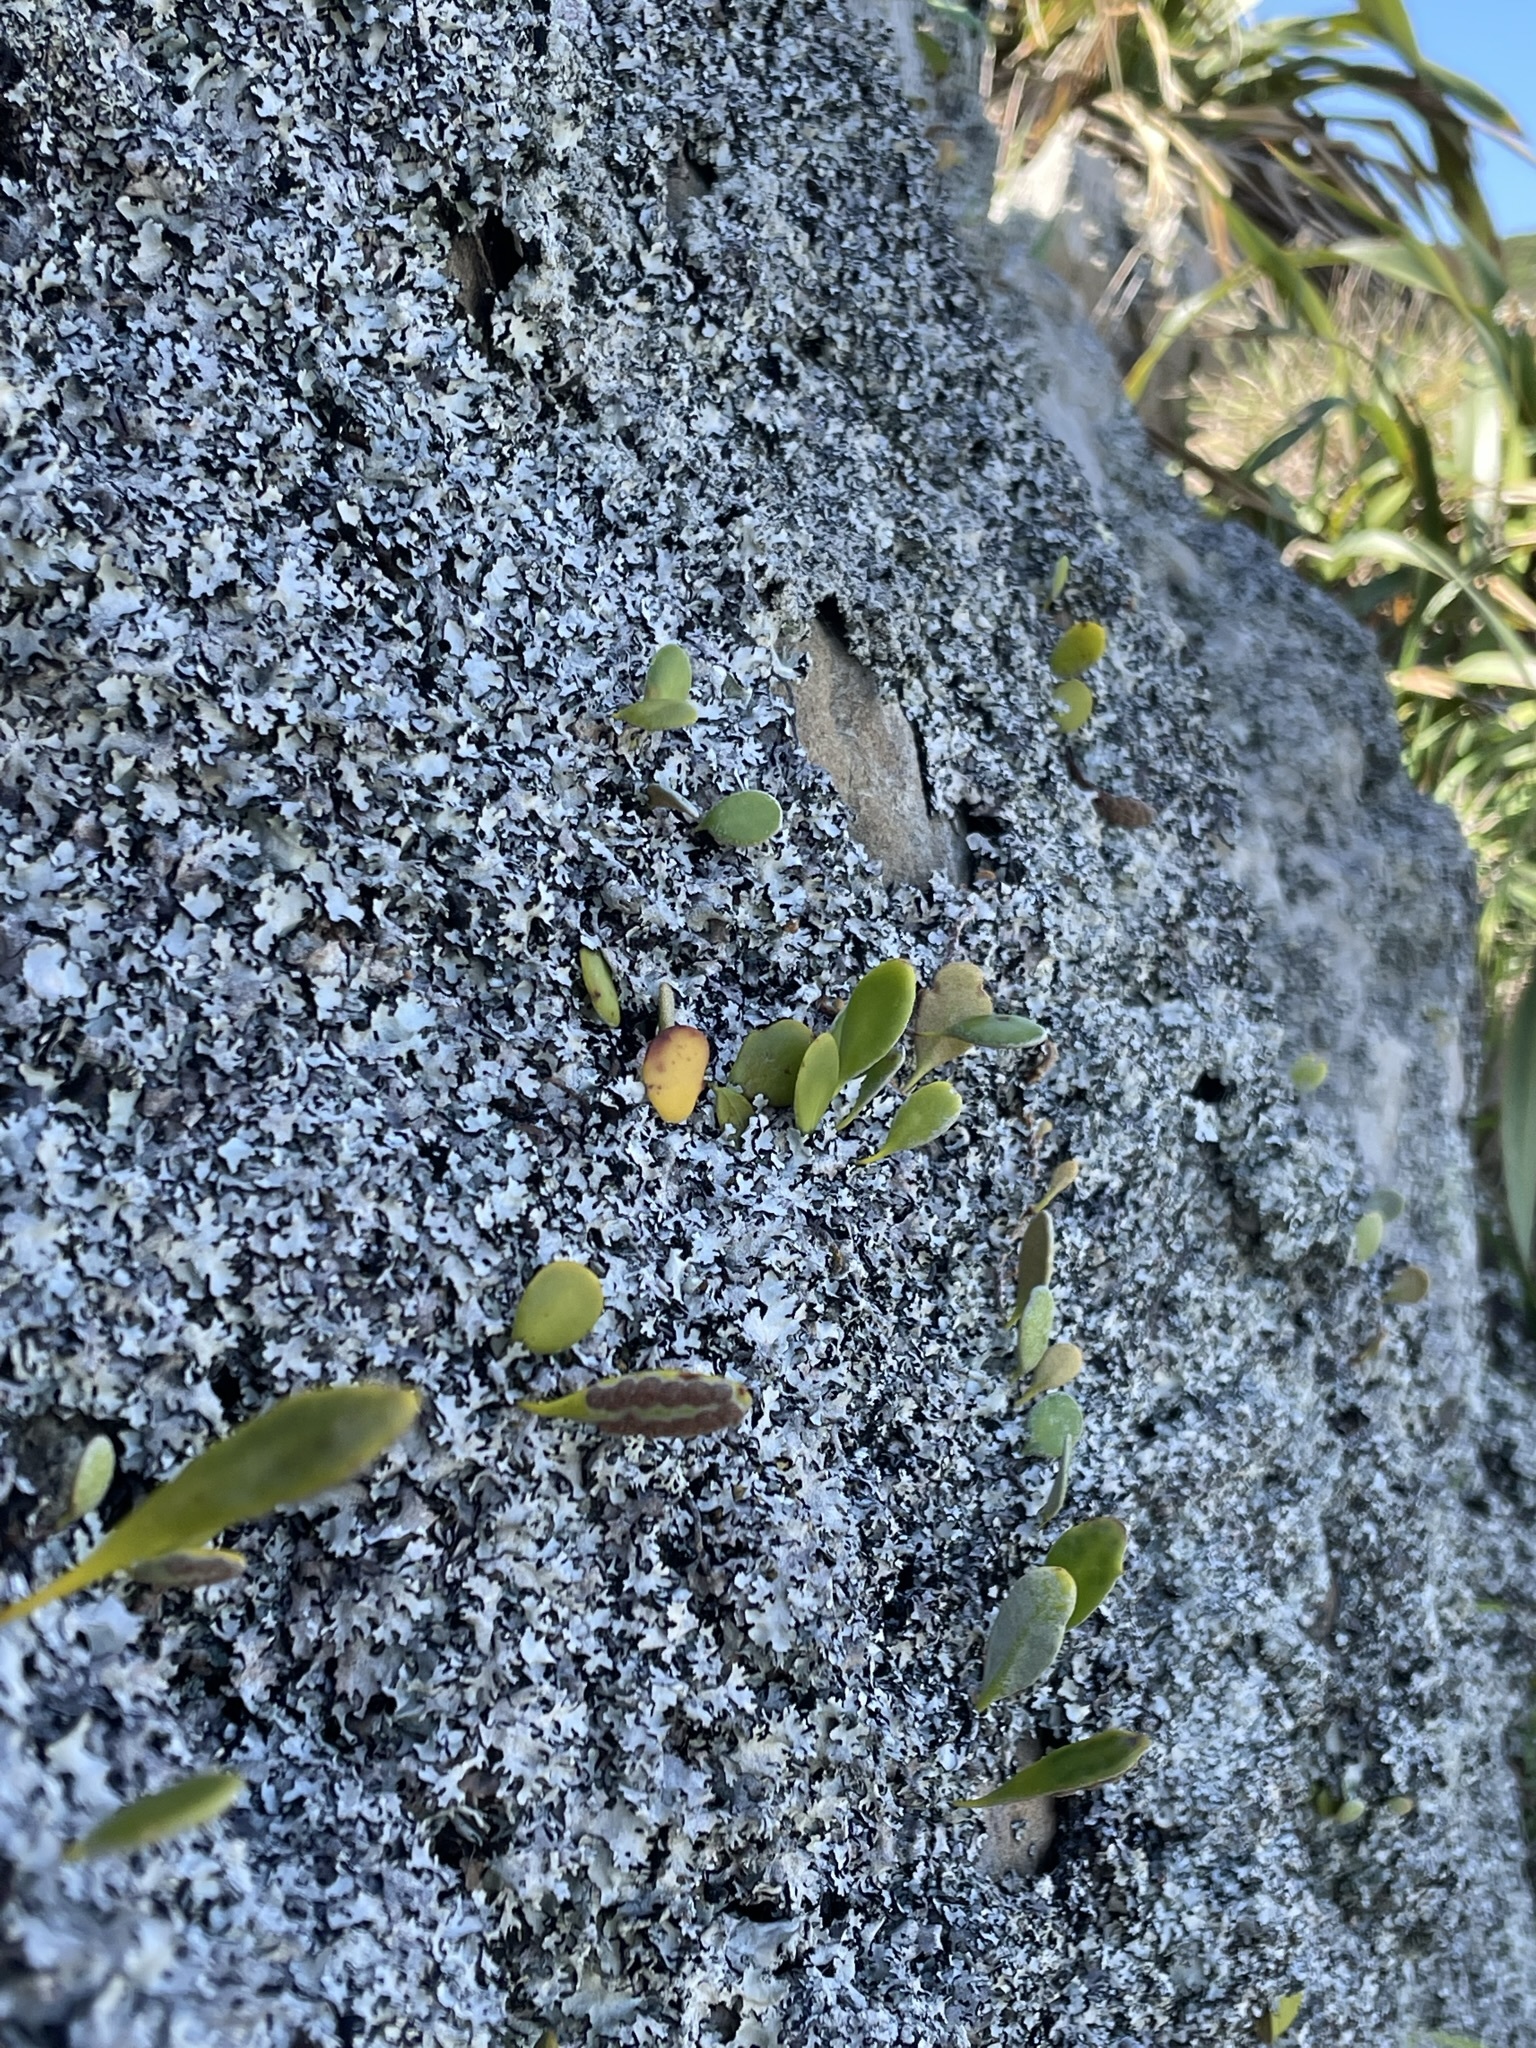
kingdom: Plantae
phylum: Tracheophyta
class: Polypodiopsida
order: Polypodiales
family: Polypodiaceae
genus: Pyrrosia
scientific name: Pyrrosia eleagnifolia
